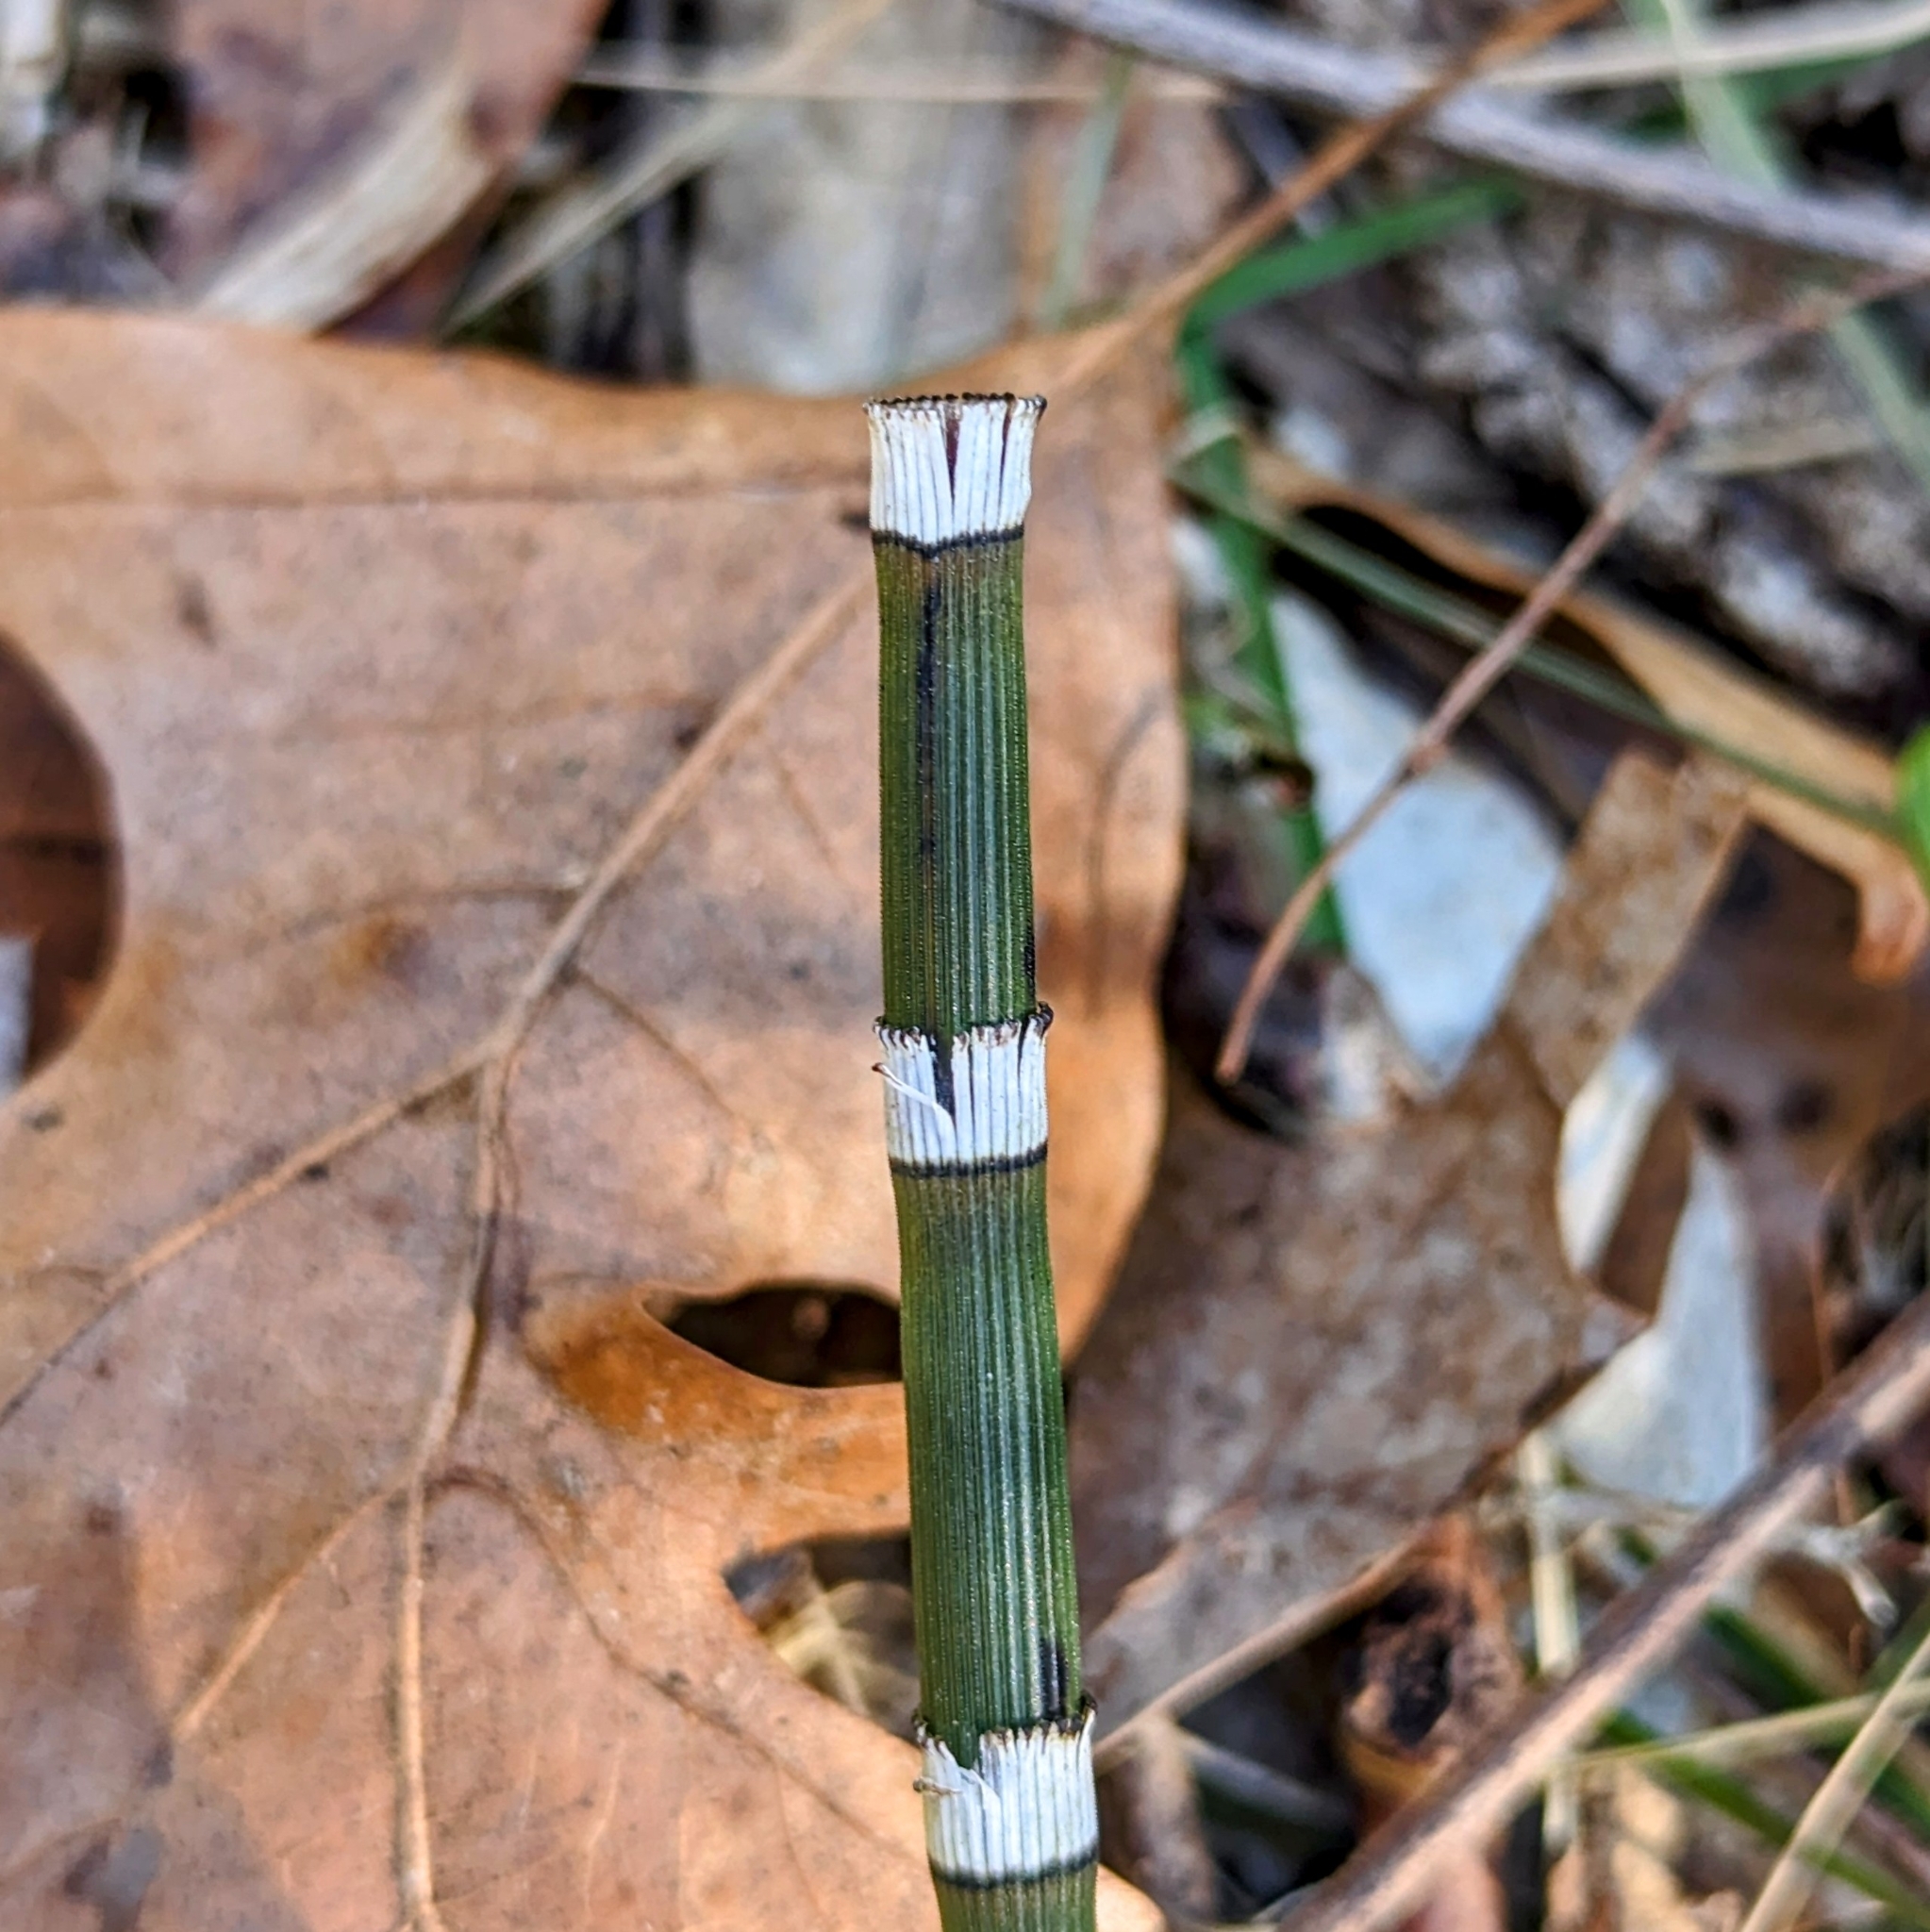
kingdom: Plantae
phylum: Tracheophyta
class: Polypodiopsida
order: Equisetales
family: Equisetaceae
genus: Equisetum
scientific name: Equisetum praealtum
